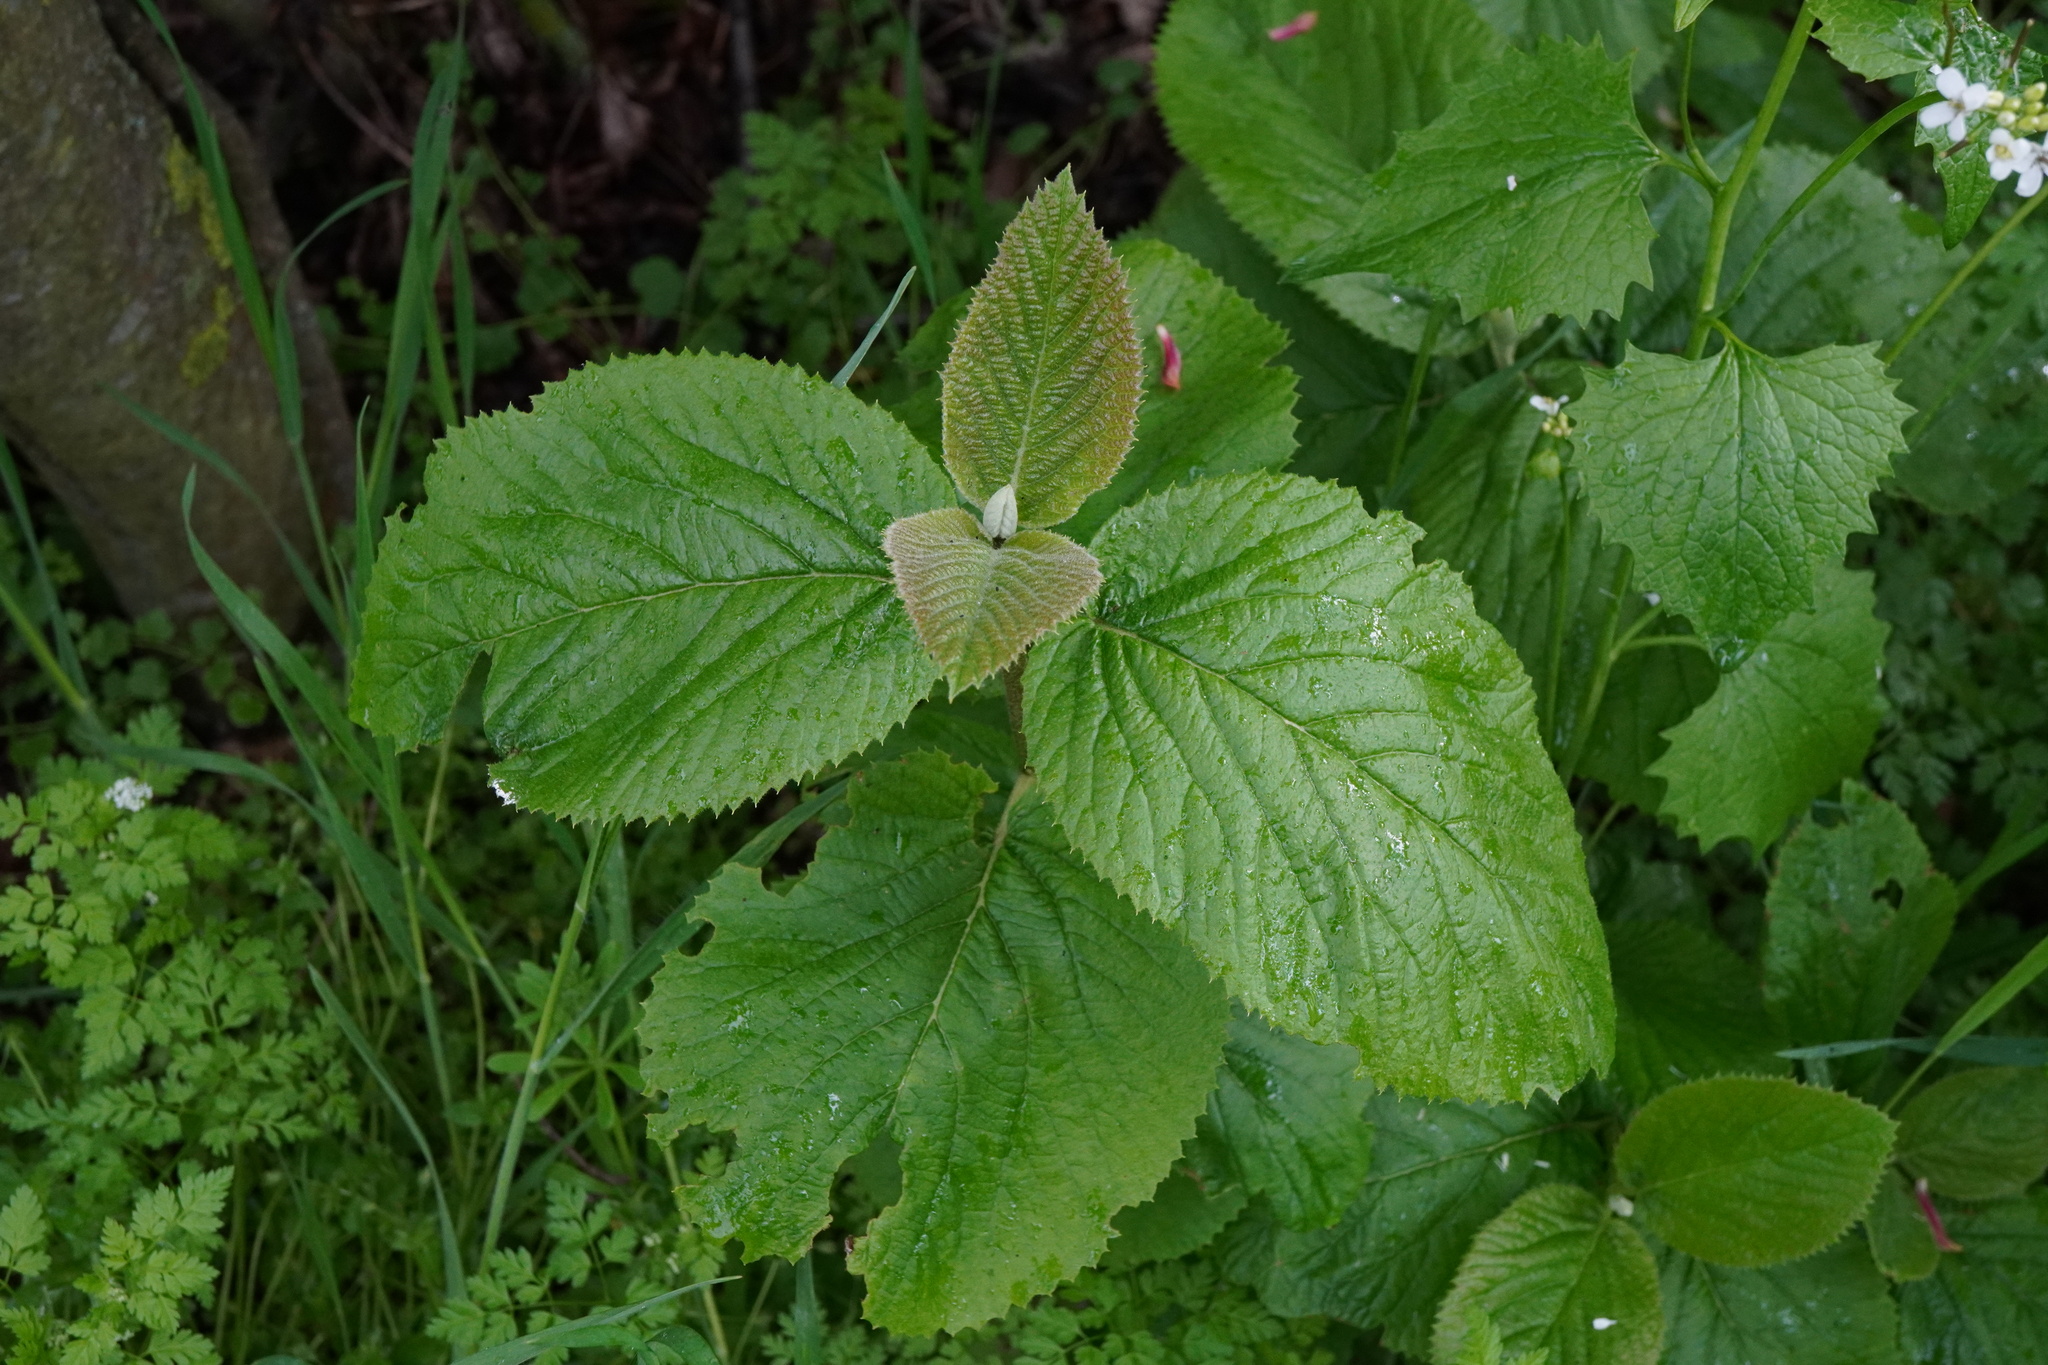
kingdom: Plantae
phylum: Tracheophyta
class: Magnoliopsida
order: Dipsacales
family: Viburnaceae
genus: Viburnum
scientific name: Viburnum lantana
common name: Wayfaring tree
